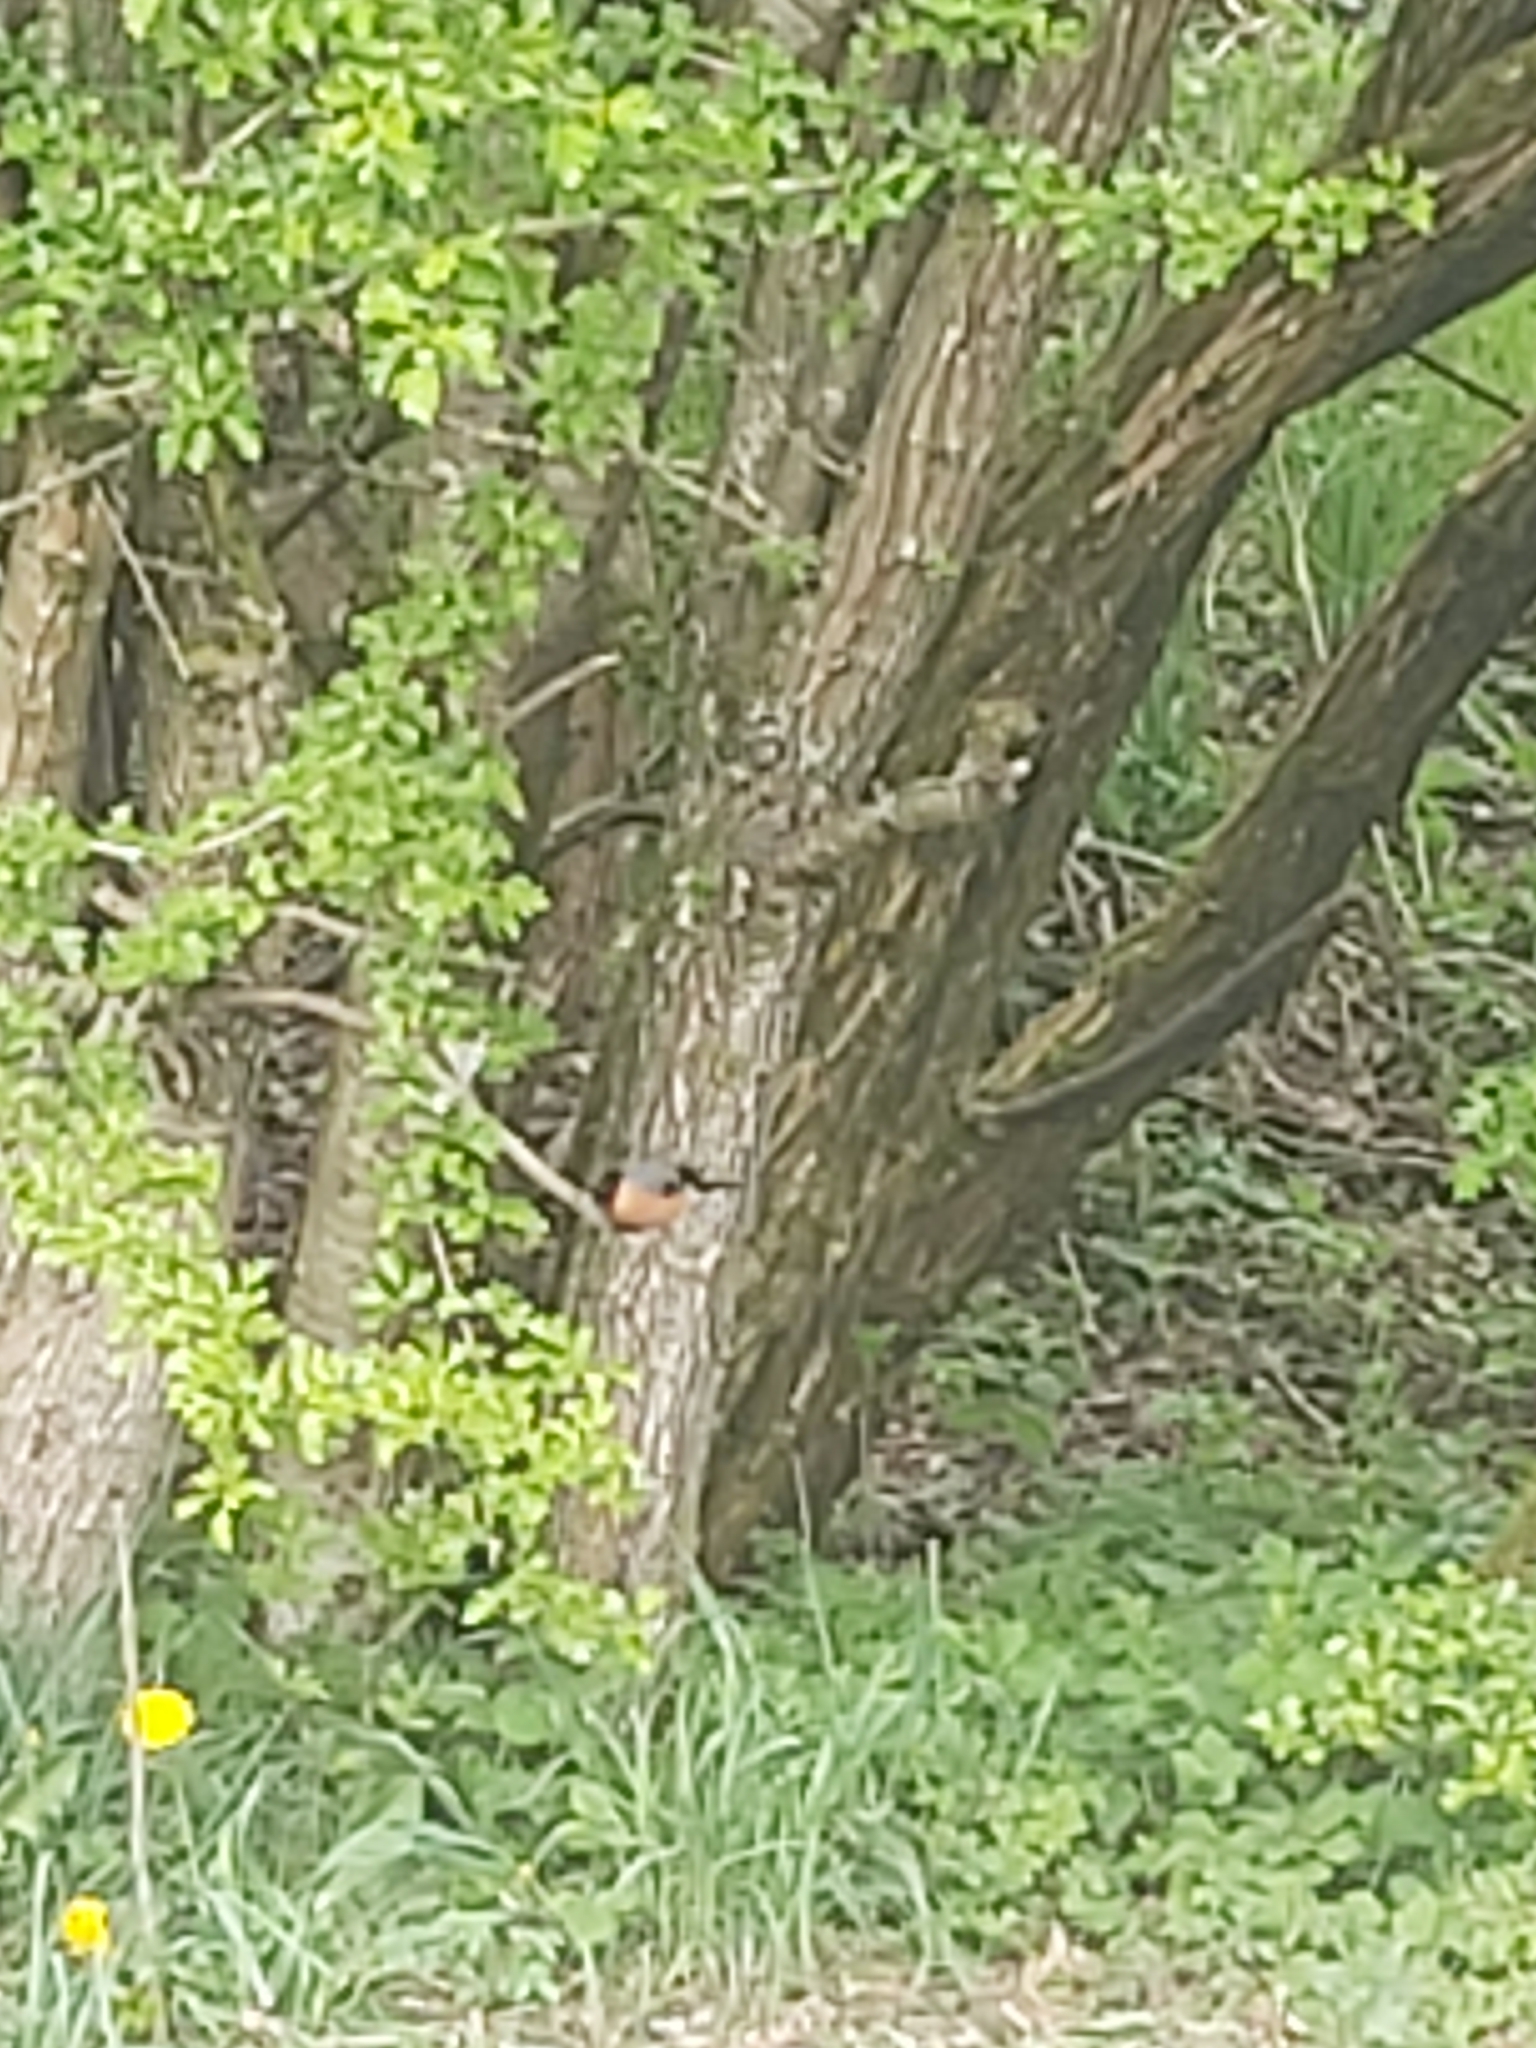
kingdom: Animalia
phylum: Chordata
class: Aves
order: Passeriformes
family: Fringillidae
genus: Pyrrhula
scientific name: Pyrrhula pyrrhula
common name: Eurasian bullfinch
